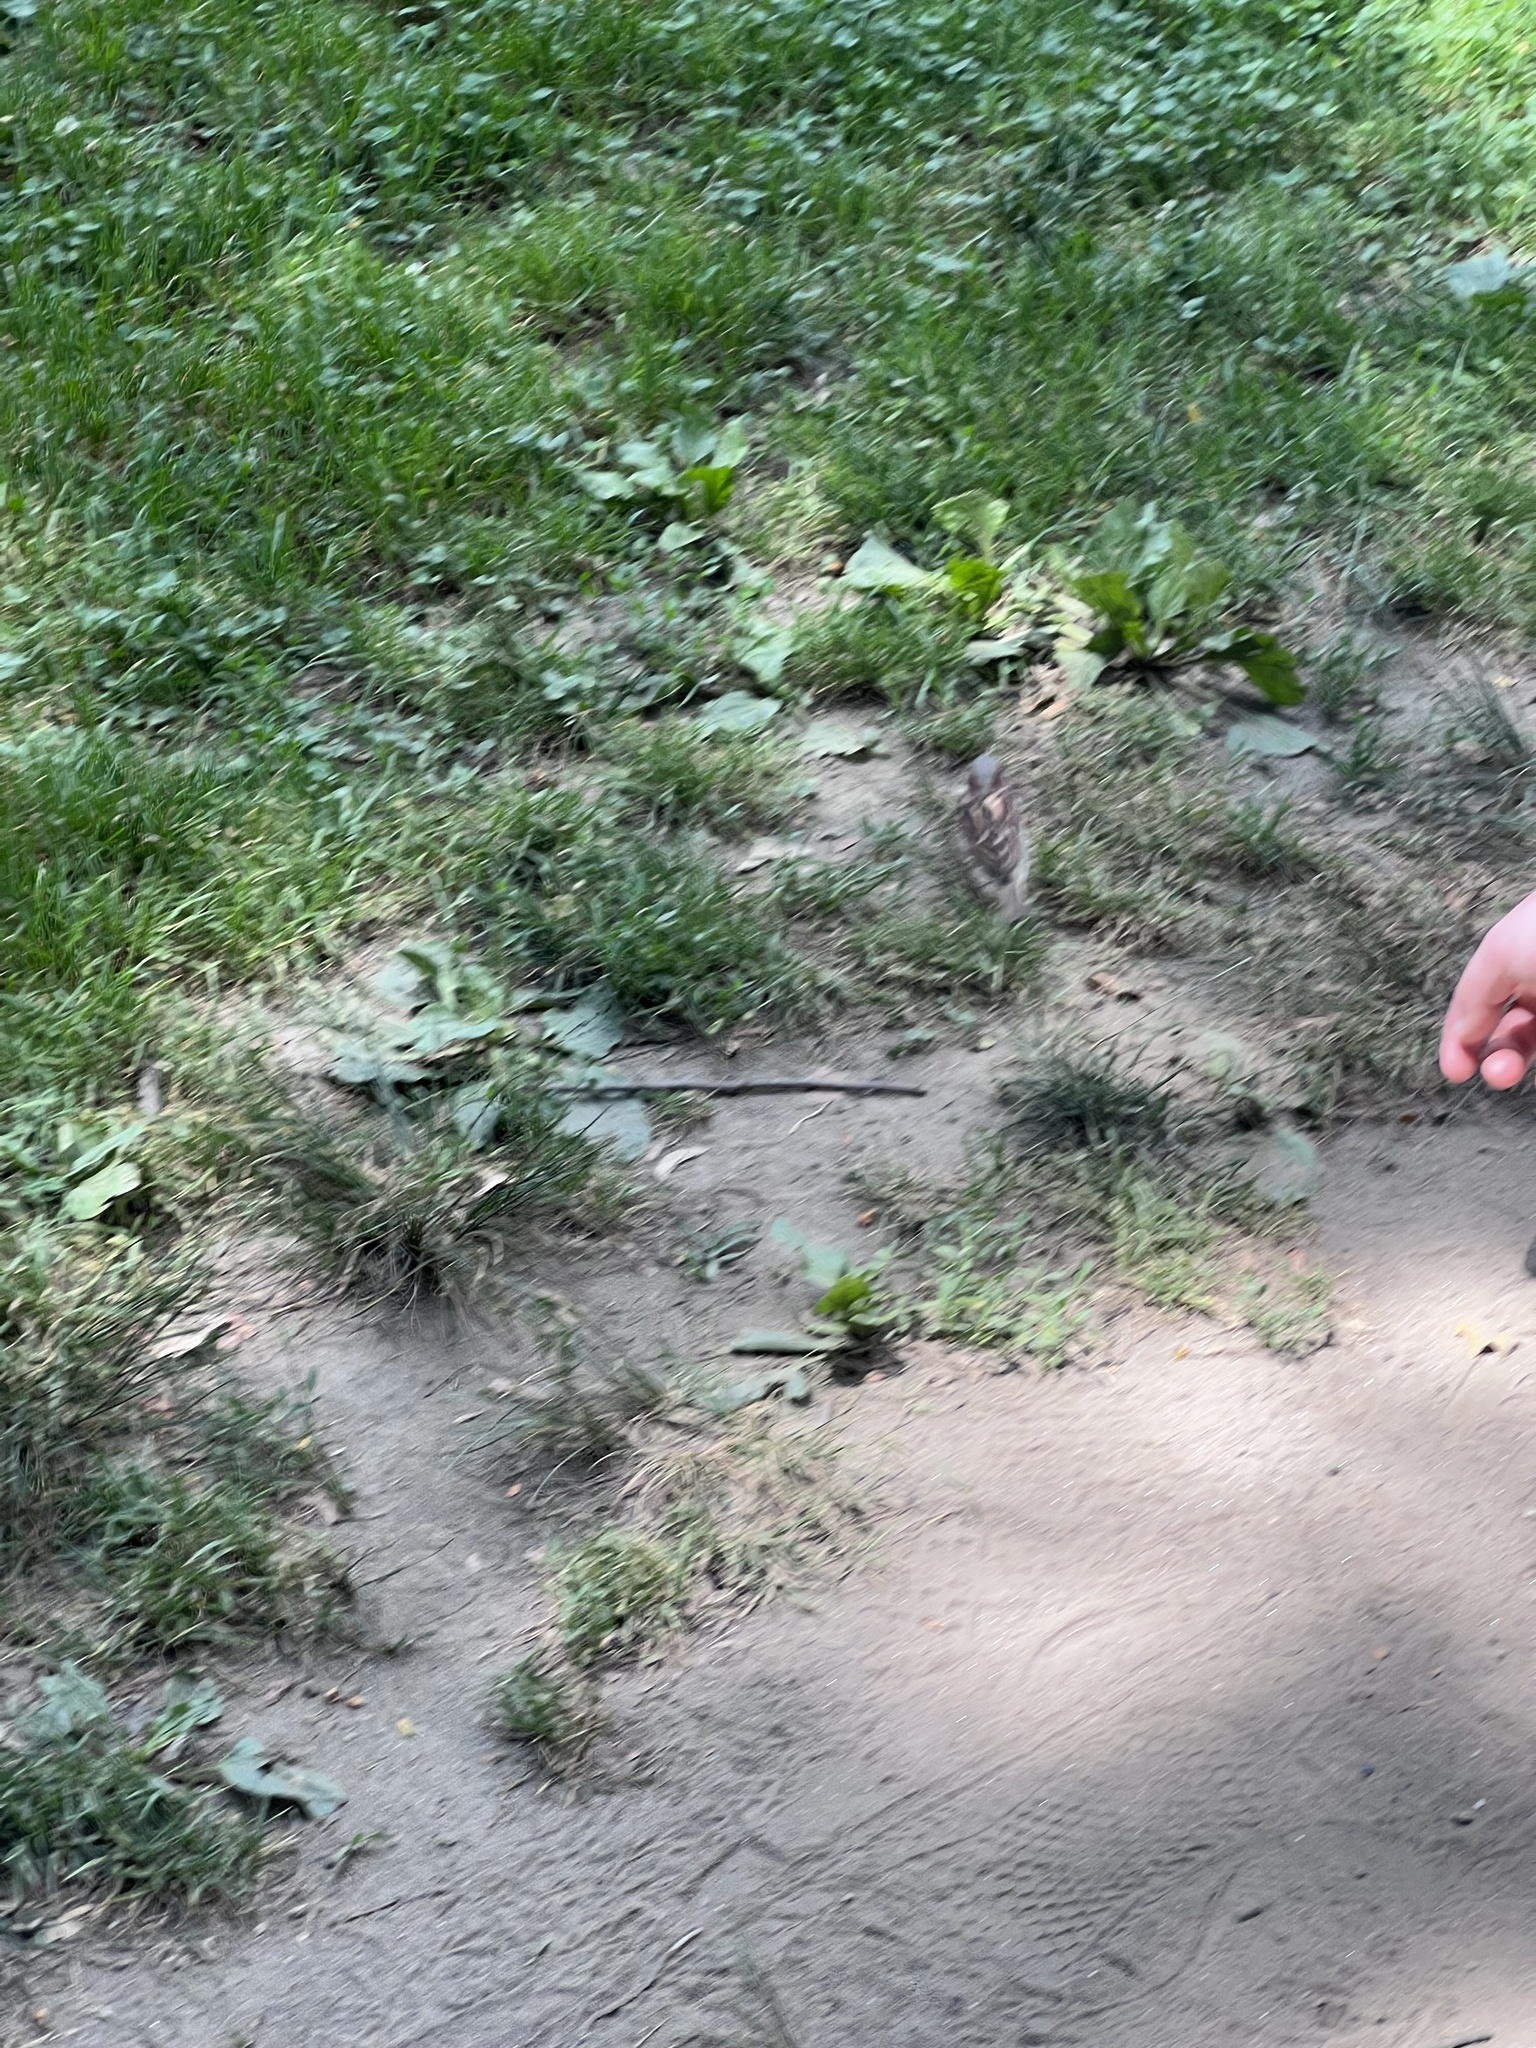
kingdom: Animalia
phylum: Chordata
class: Aves
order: Passeriformes
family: Passeridae
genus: Passer
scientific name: Passer domesticus
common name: House sparrow
